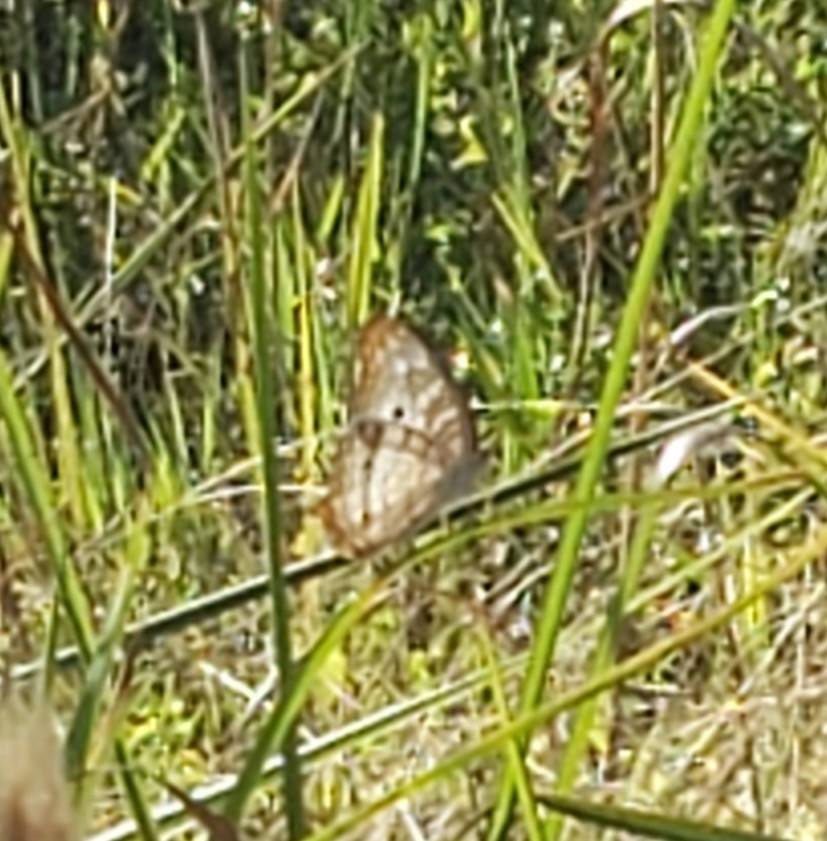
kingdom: Animalia
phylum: Arthropoda
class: Insecta
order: Lepidoptera
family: Nymphalidae
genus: Anartia
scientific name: Anartia jatrophae
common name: White peacock
